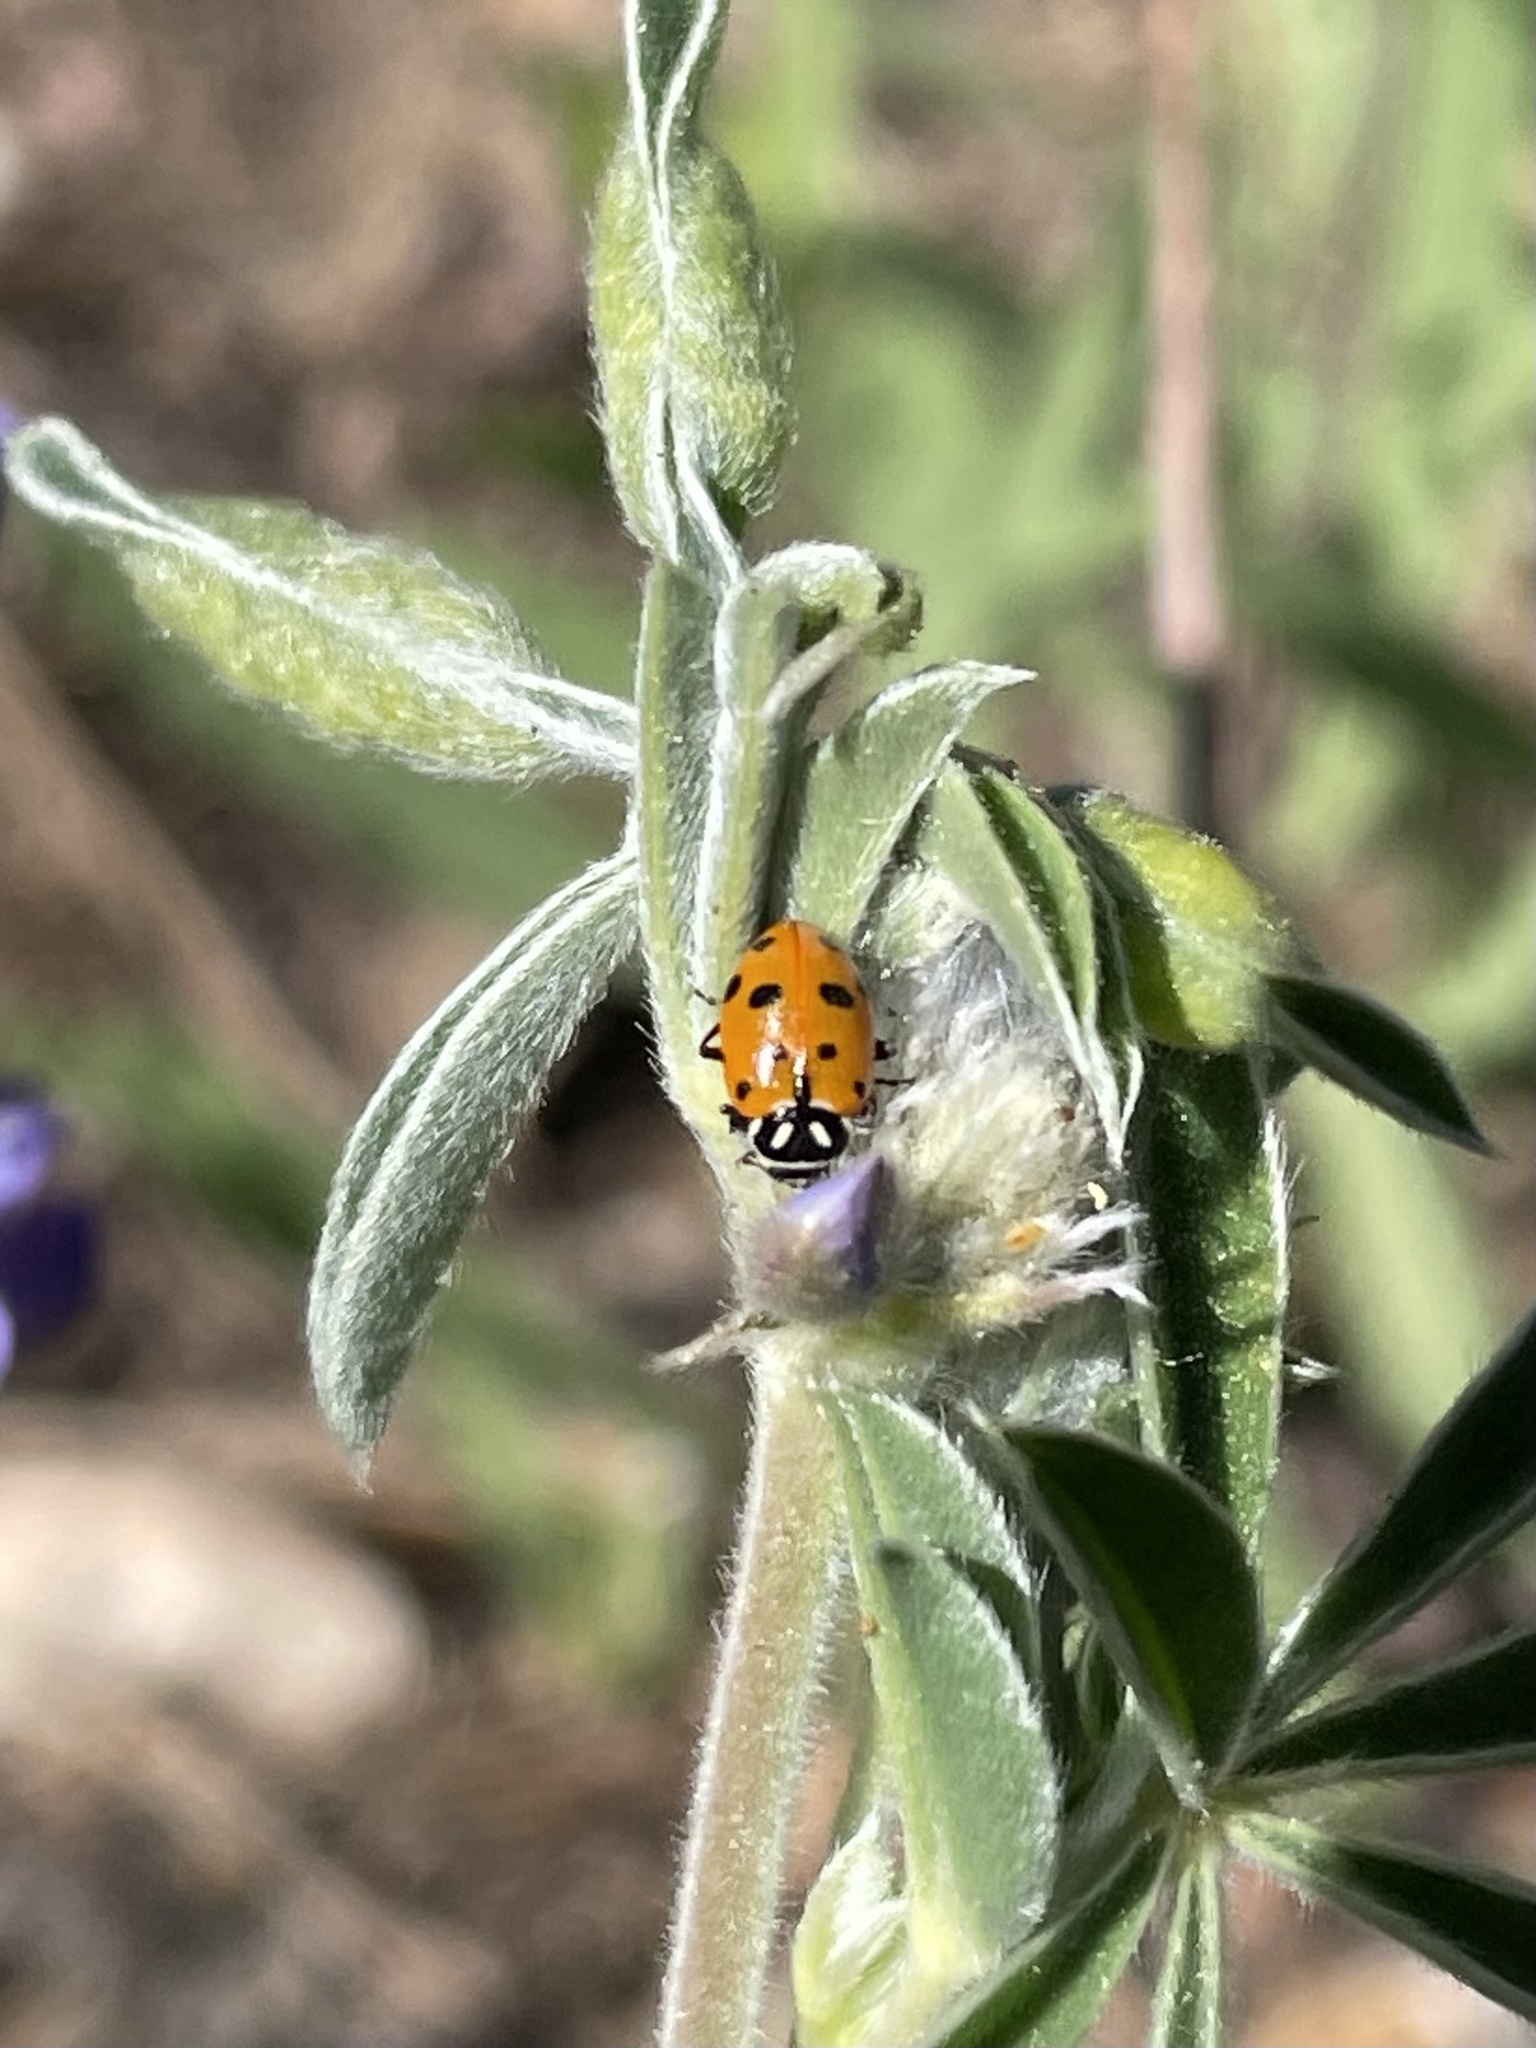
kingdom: Animalia
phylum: Arthropoda
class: Insecta
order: Coleoptera
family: Coccinellidae
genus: Hippodamia
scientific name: Hippodamia convergens
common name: Convergent lady beetle
